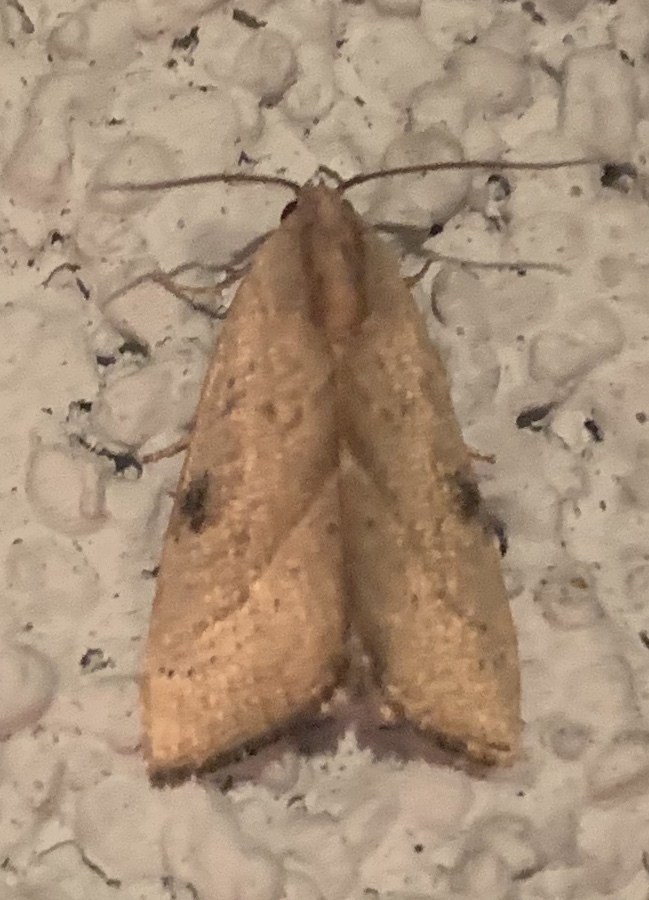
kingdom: Animalia
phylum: Arthropoda
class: Insecta
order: Lepidoptera
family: Noctuidae
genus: Galgula
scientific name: Galgula partita
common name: Wedgeling
